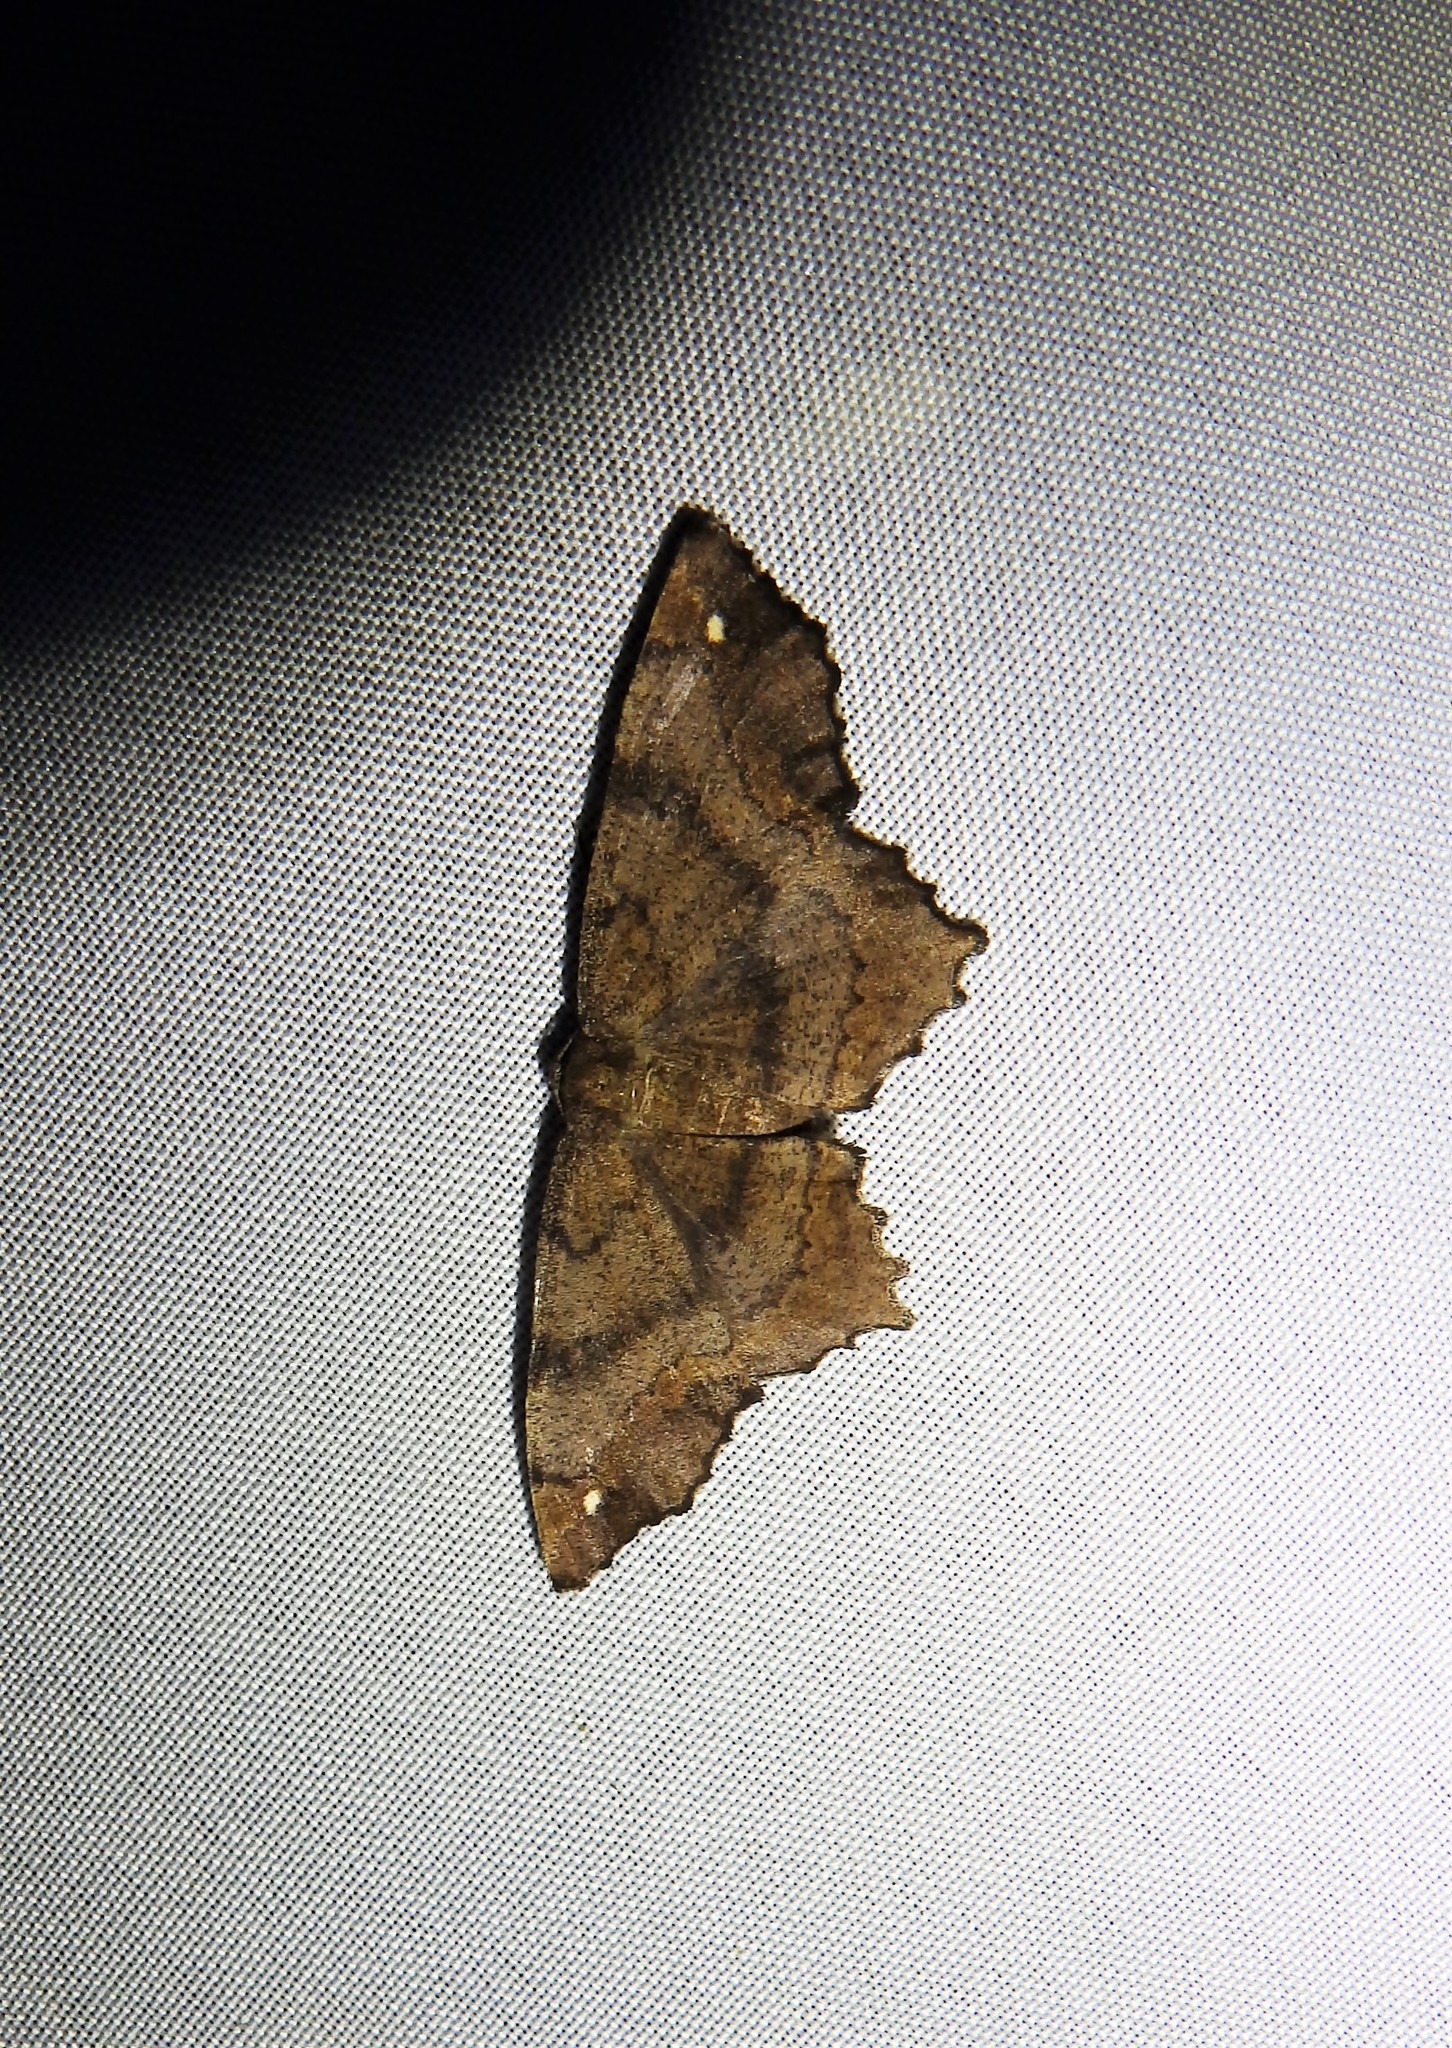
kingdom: Animalia
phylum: Arthropoda
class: Insecta
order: Lepidoptera
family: Geometridae
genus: Hypagyrtis
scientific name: Hypagyrtis unipunctata
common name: One-spotted variant
